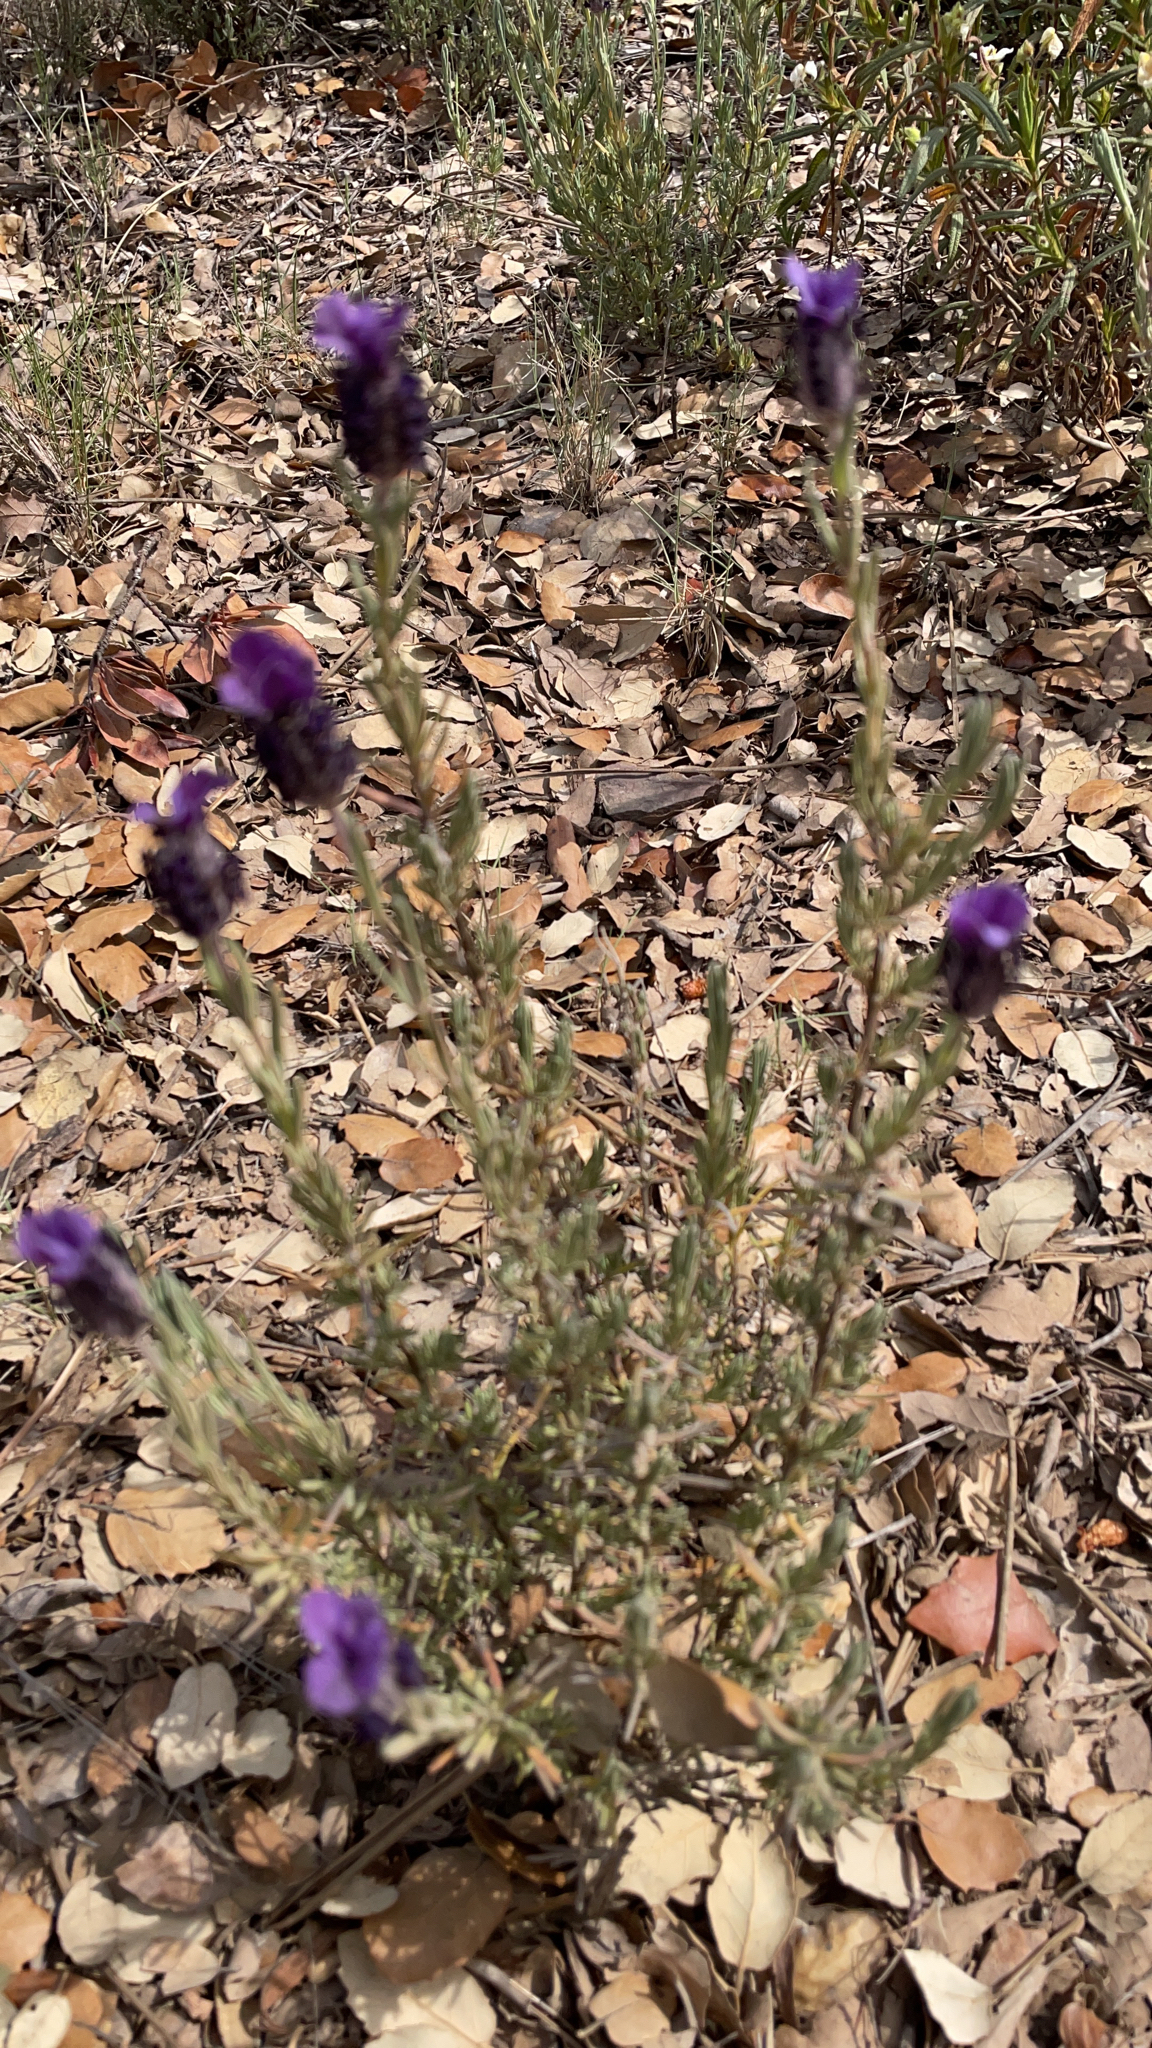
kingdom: Plantae
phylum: Tracheophyta
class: Magnoliopsida
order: Lamiales
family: Lamiaceae
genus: Lavandula
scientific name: Lavandula stoechas
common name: French lavender
